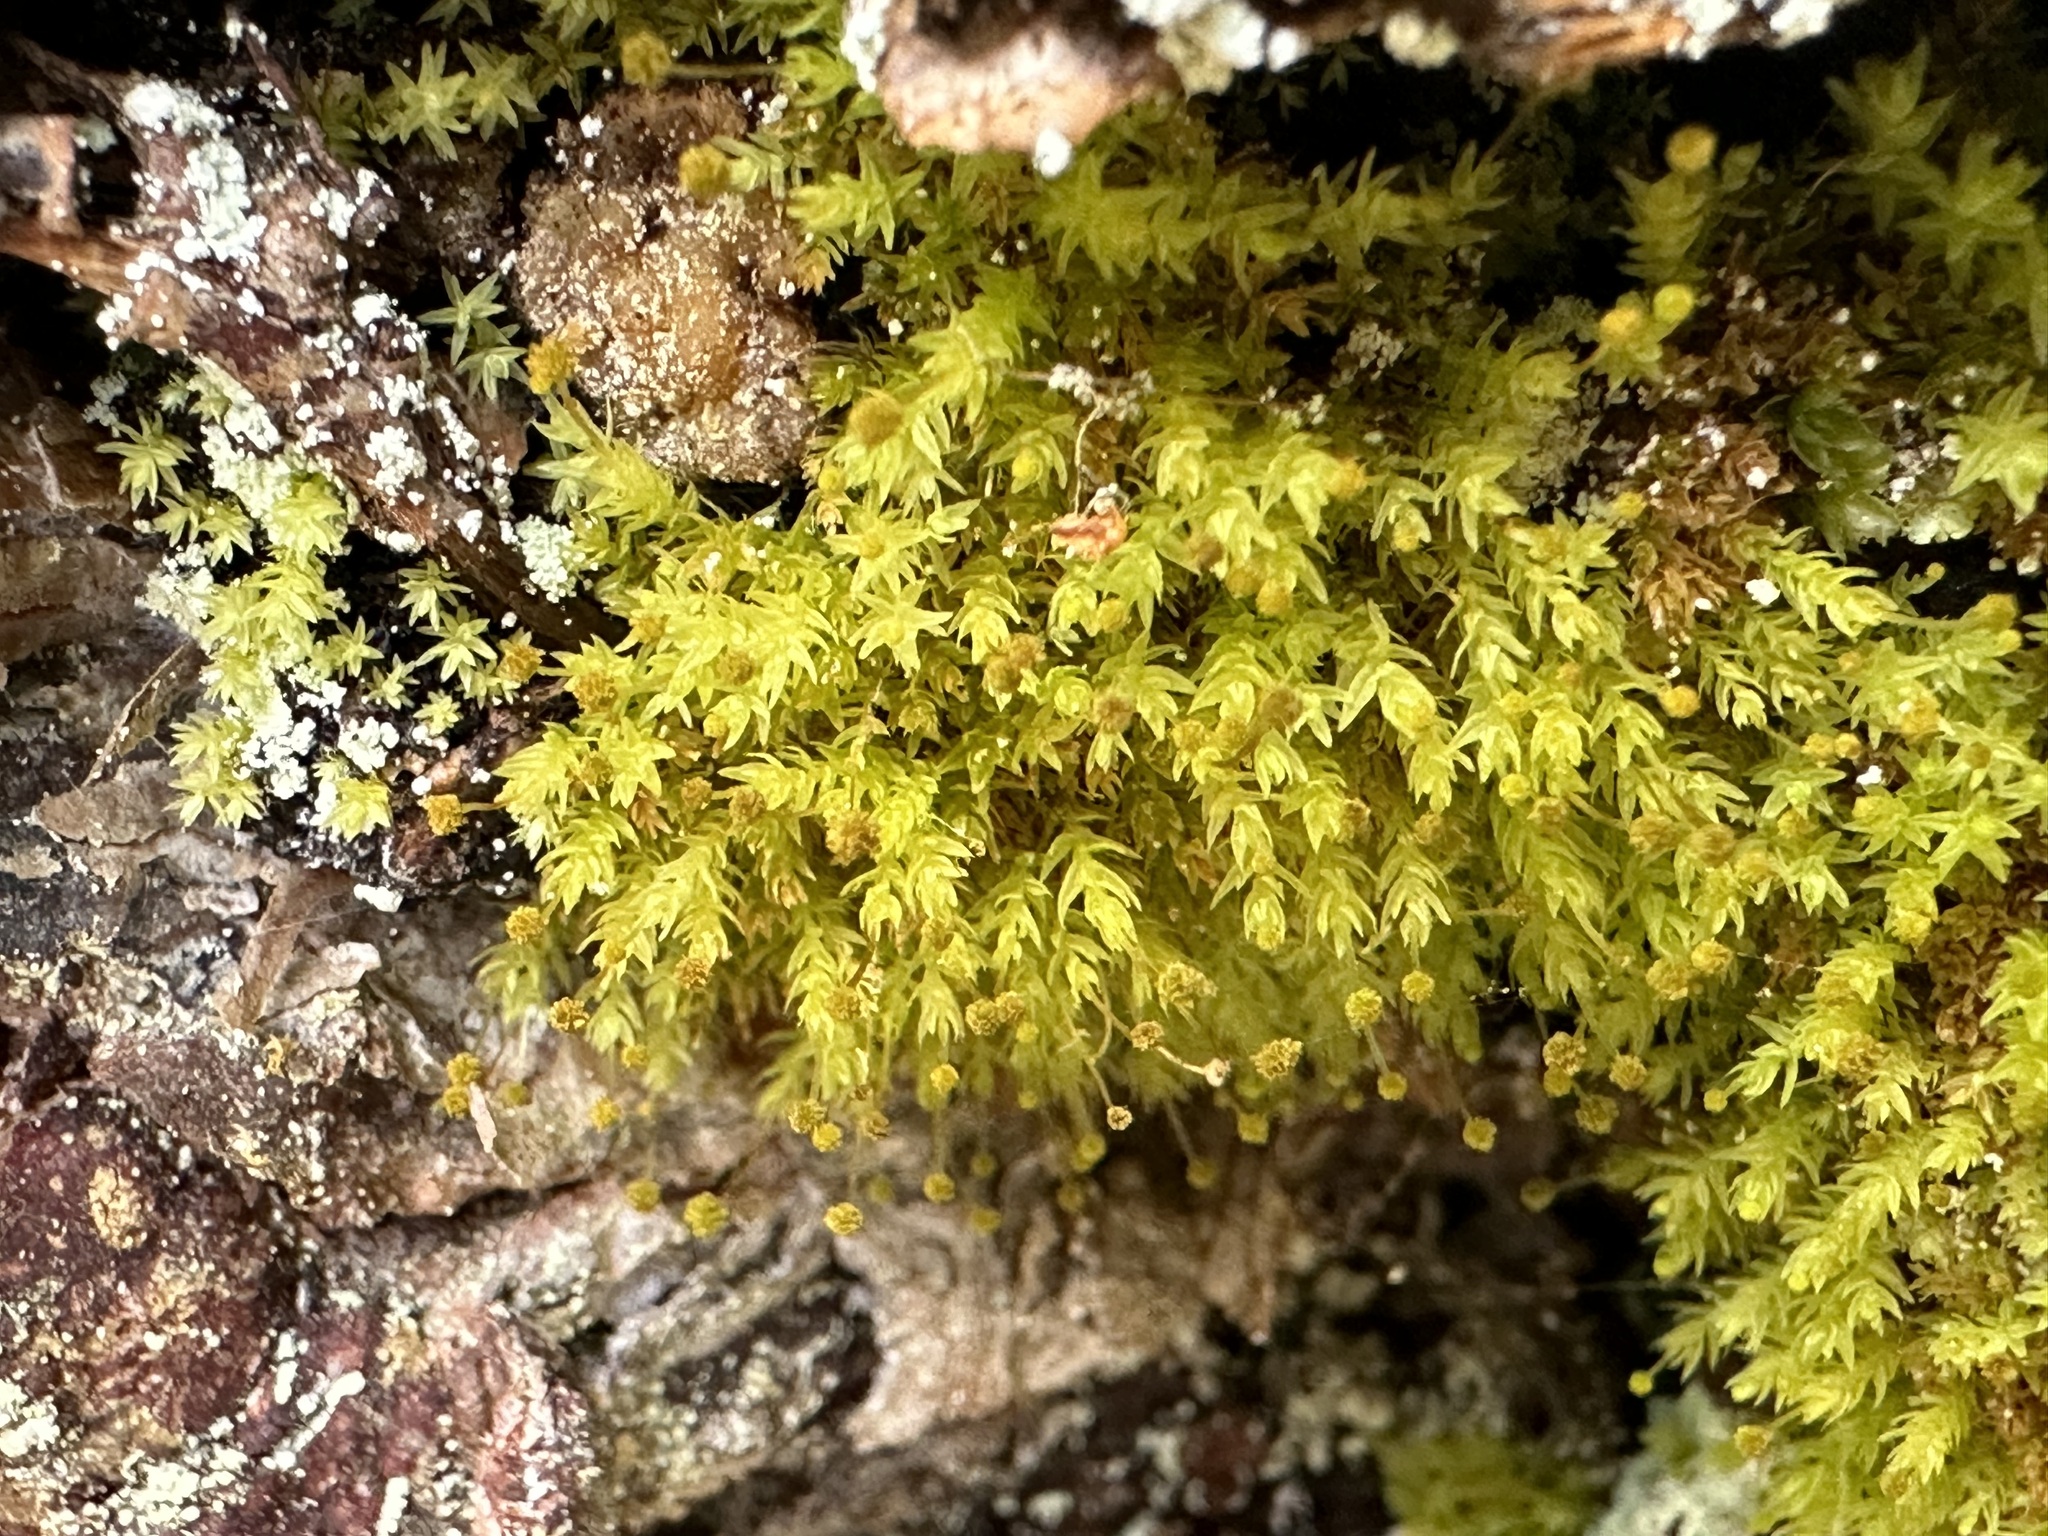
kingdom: Plantae
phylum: Bryophyta
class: Bryopsida
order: Aulacomniales
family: Aulacomniaceae
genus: Aulacomnium
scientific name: Aulacomnium androgynum
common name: Little groove moss
